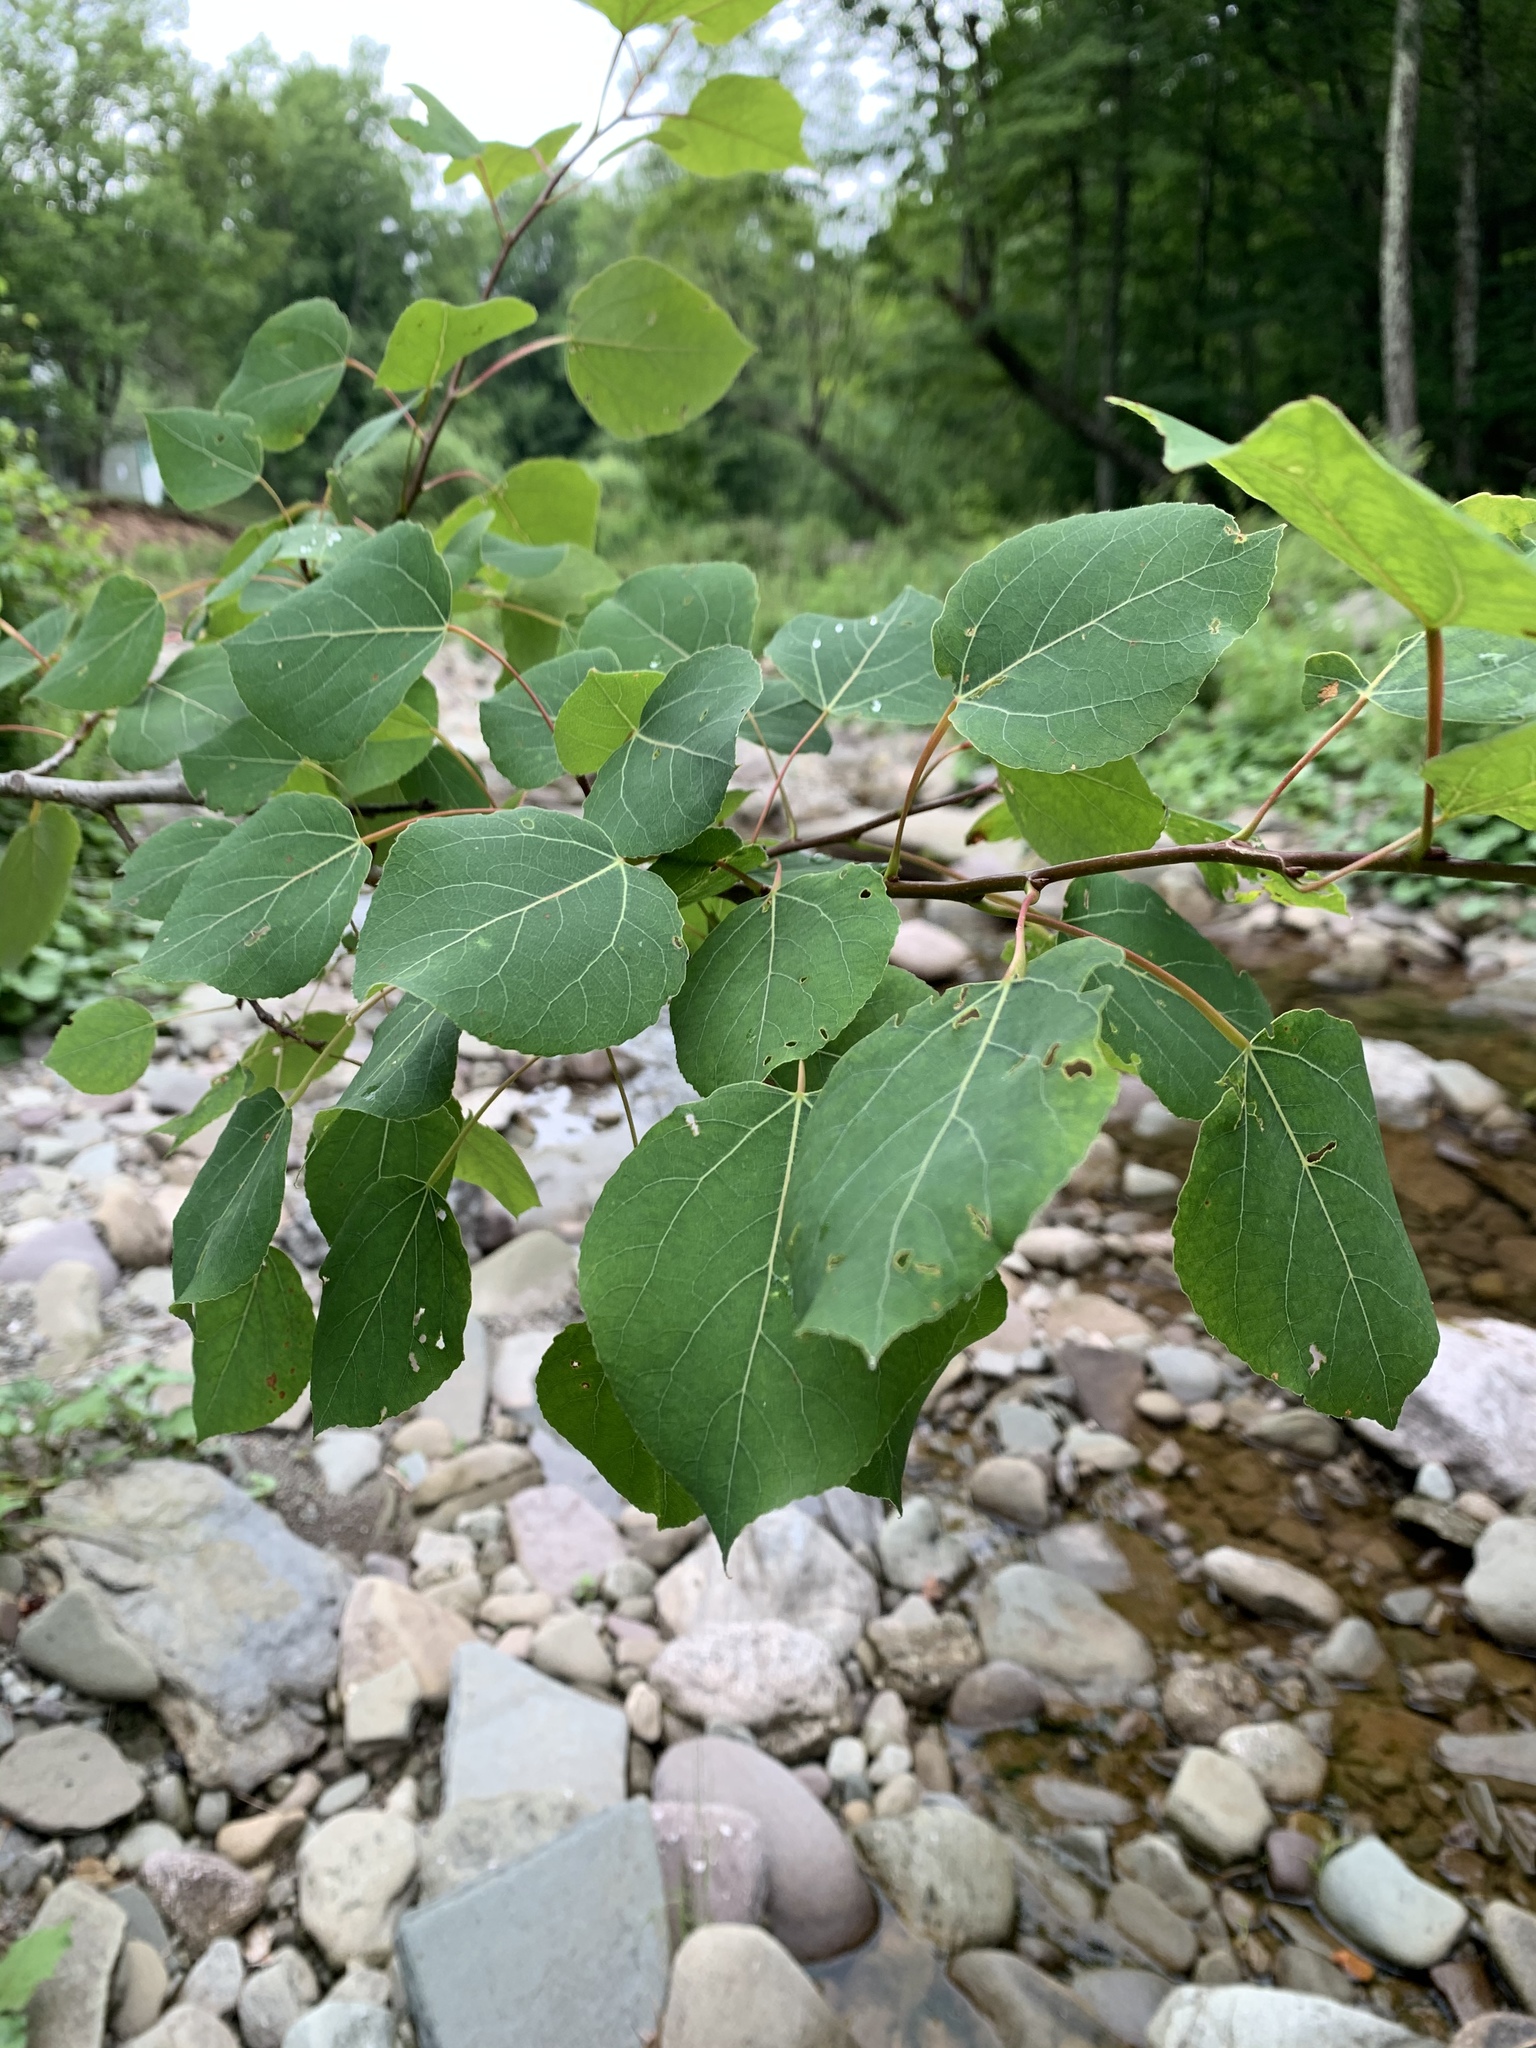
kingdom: Plantae
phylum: Tracheophyta
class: Magnoliopsida
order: Malpighiales
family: Salicaceae
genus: Populus
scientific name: Populus tremuloides
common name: Quaking aspen
